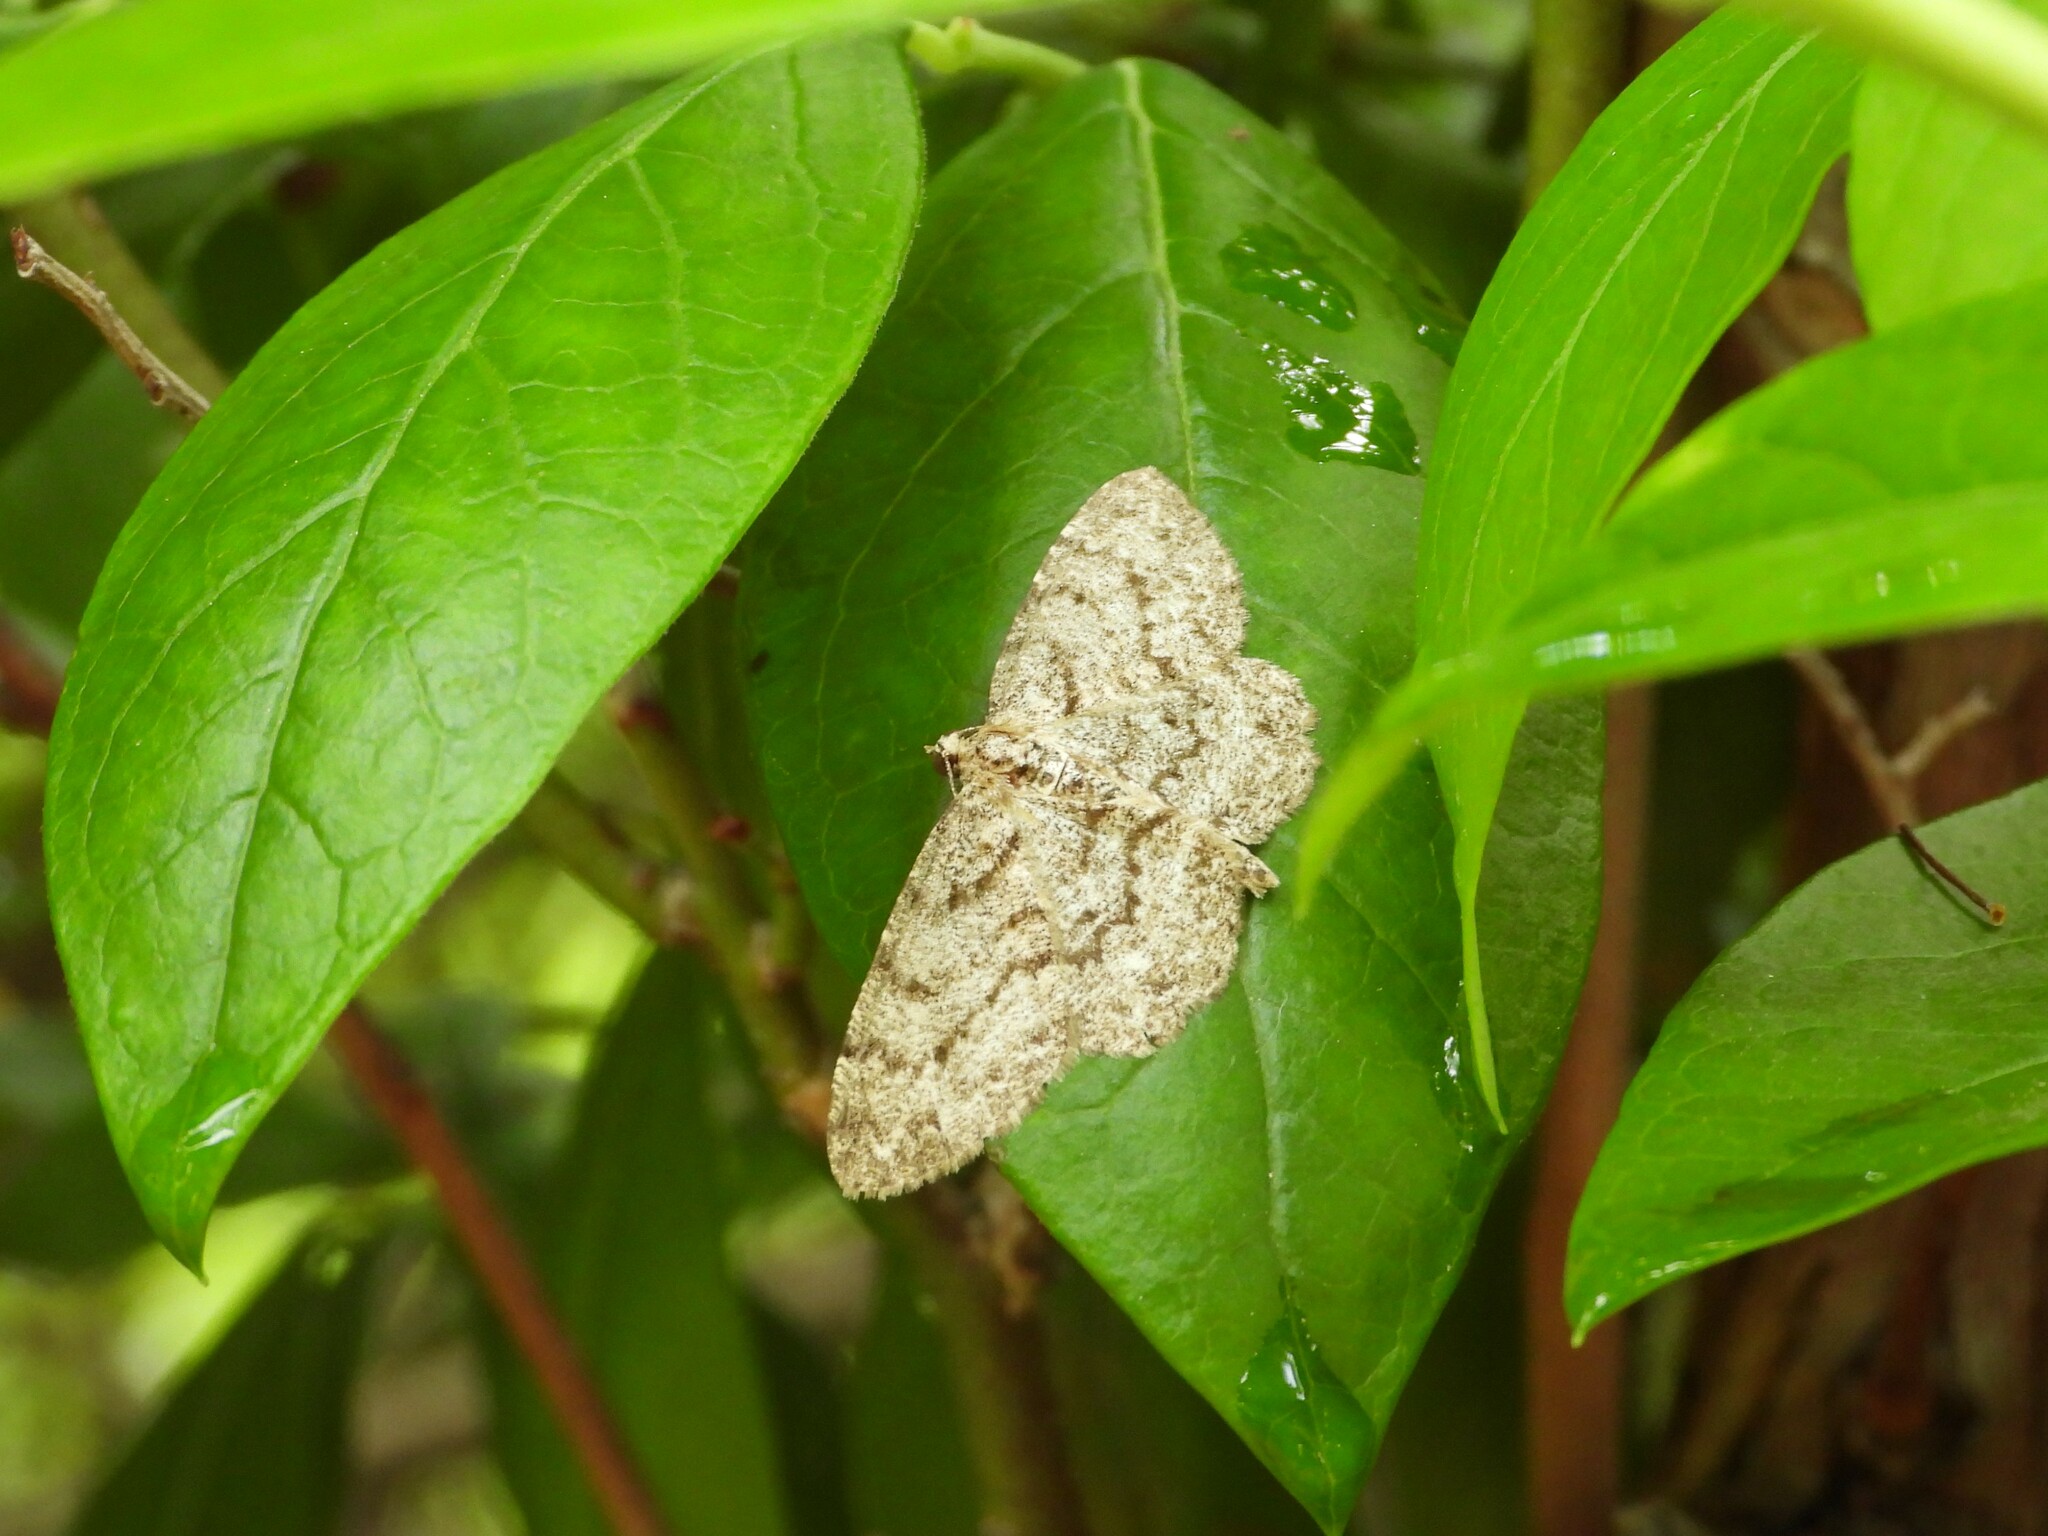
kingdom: Animalia
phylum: Arthropoda
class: Insecta
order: Lepidoptera
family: Geometridae
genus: Protoboarmia
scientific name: Protoboarmia porcelaria
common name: Porcelain gray
